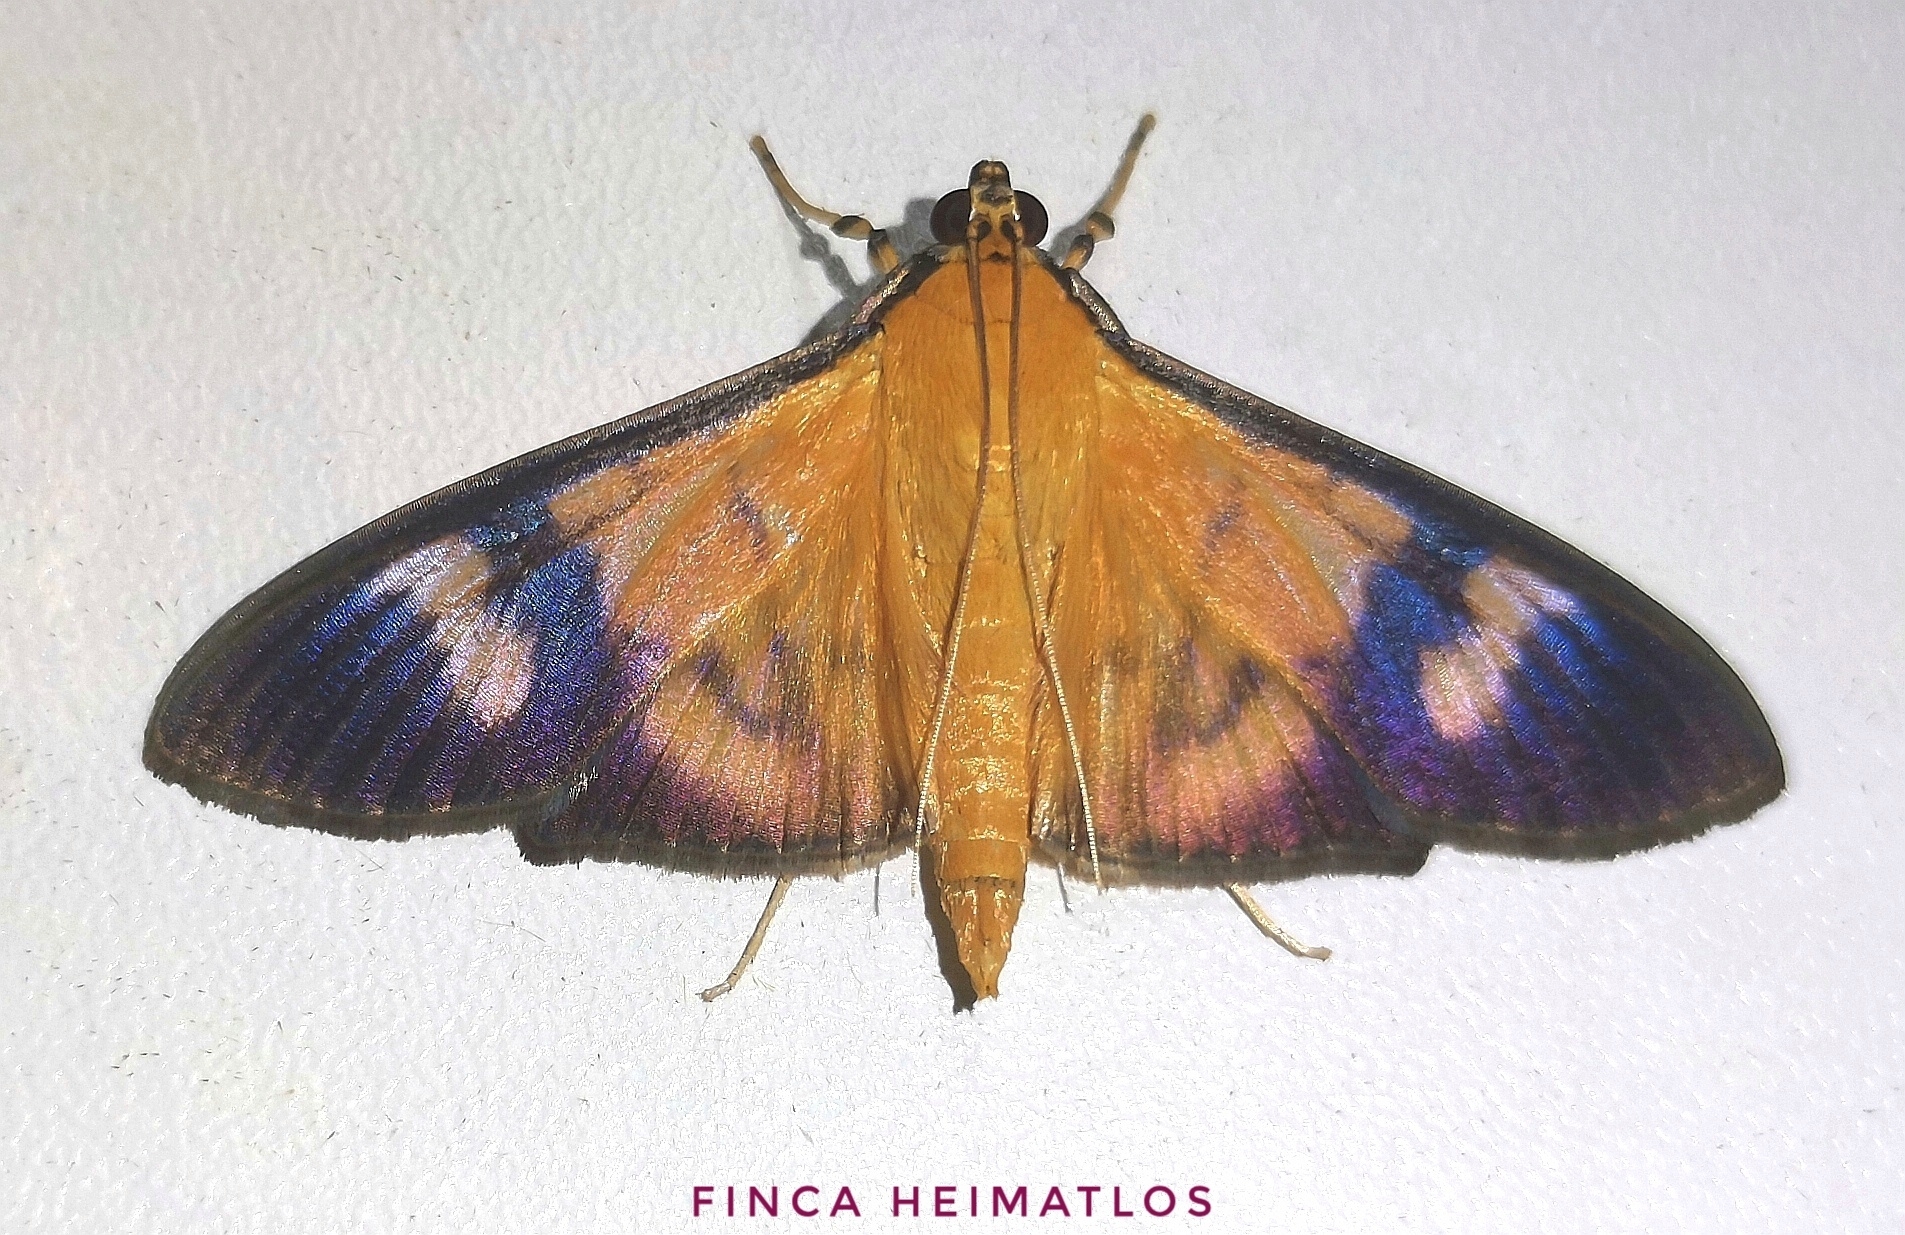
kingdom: Animalia
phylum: Arthropoda
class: Insecta
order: Lepidoptera
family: Crambidae
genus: Phostria
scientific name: Phostria dohrni
